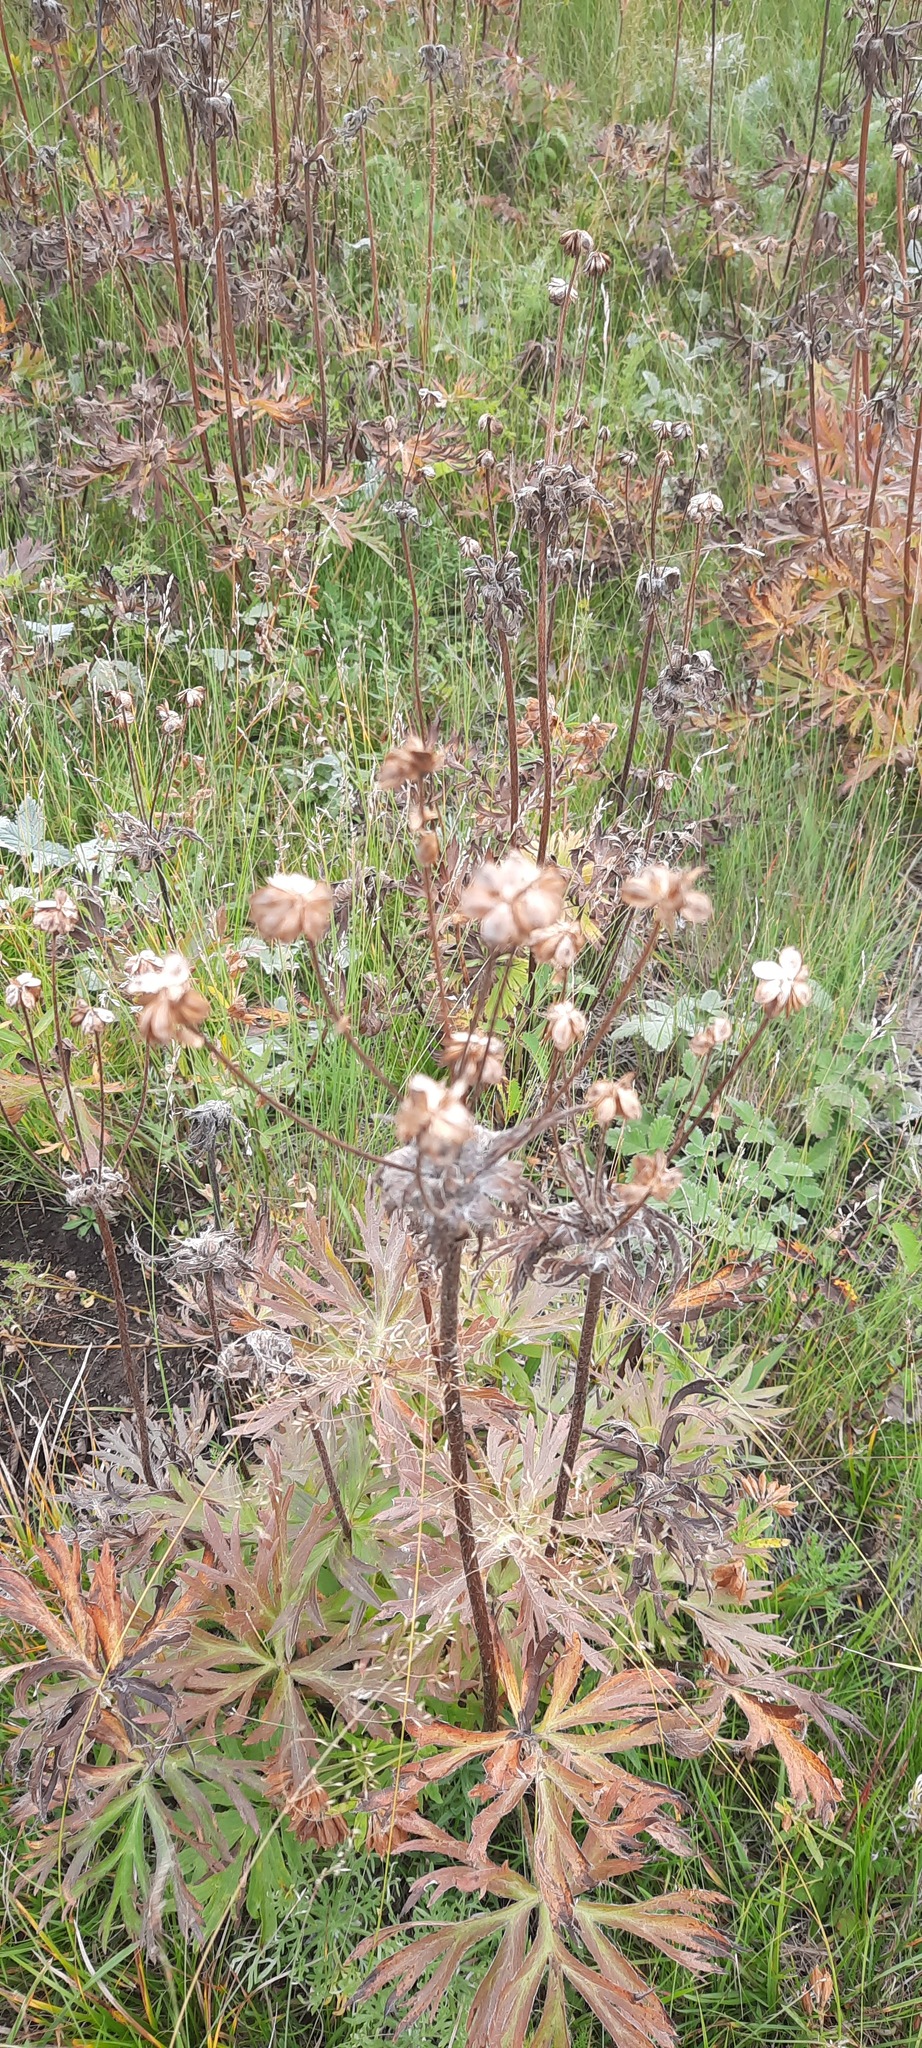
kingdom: Plantae
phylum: Tracheophyta
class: Magnoliopsida
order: Ranunculales
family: Ranunculaceae
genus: Anemonastrum
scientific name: Anemonastrum narcissiflorum
